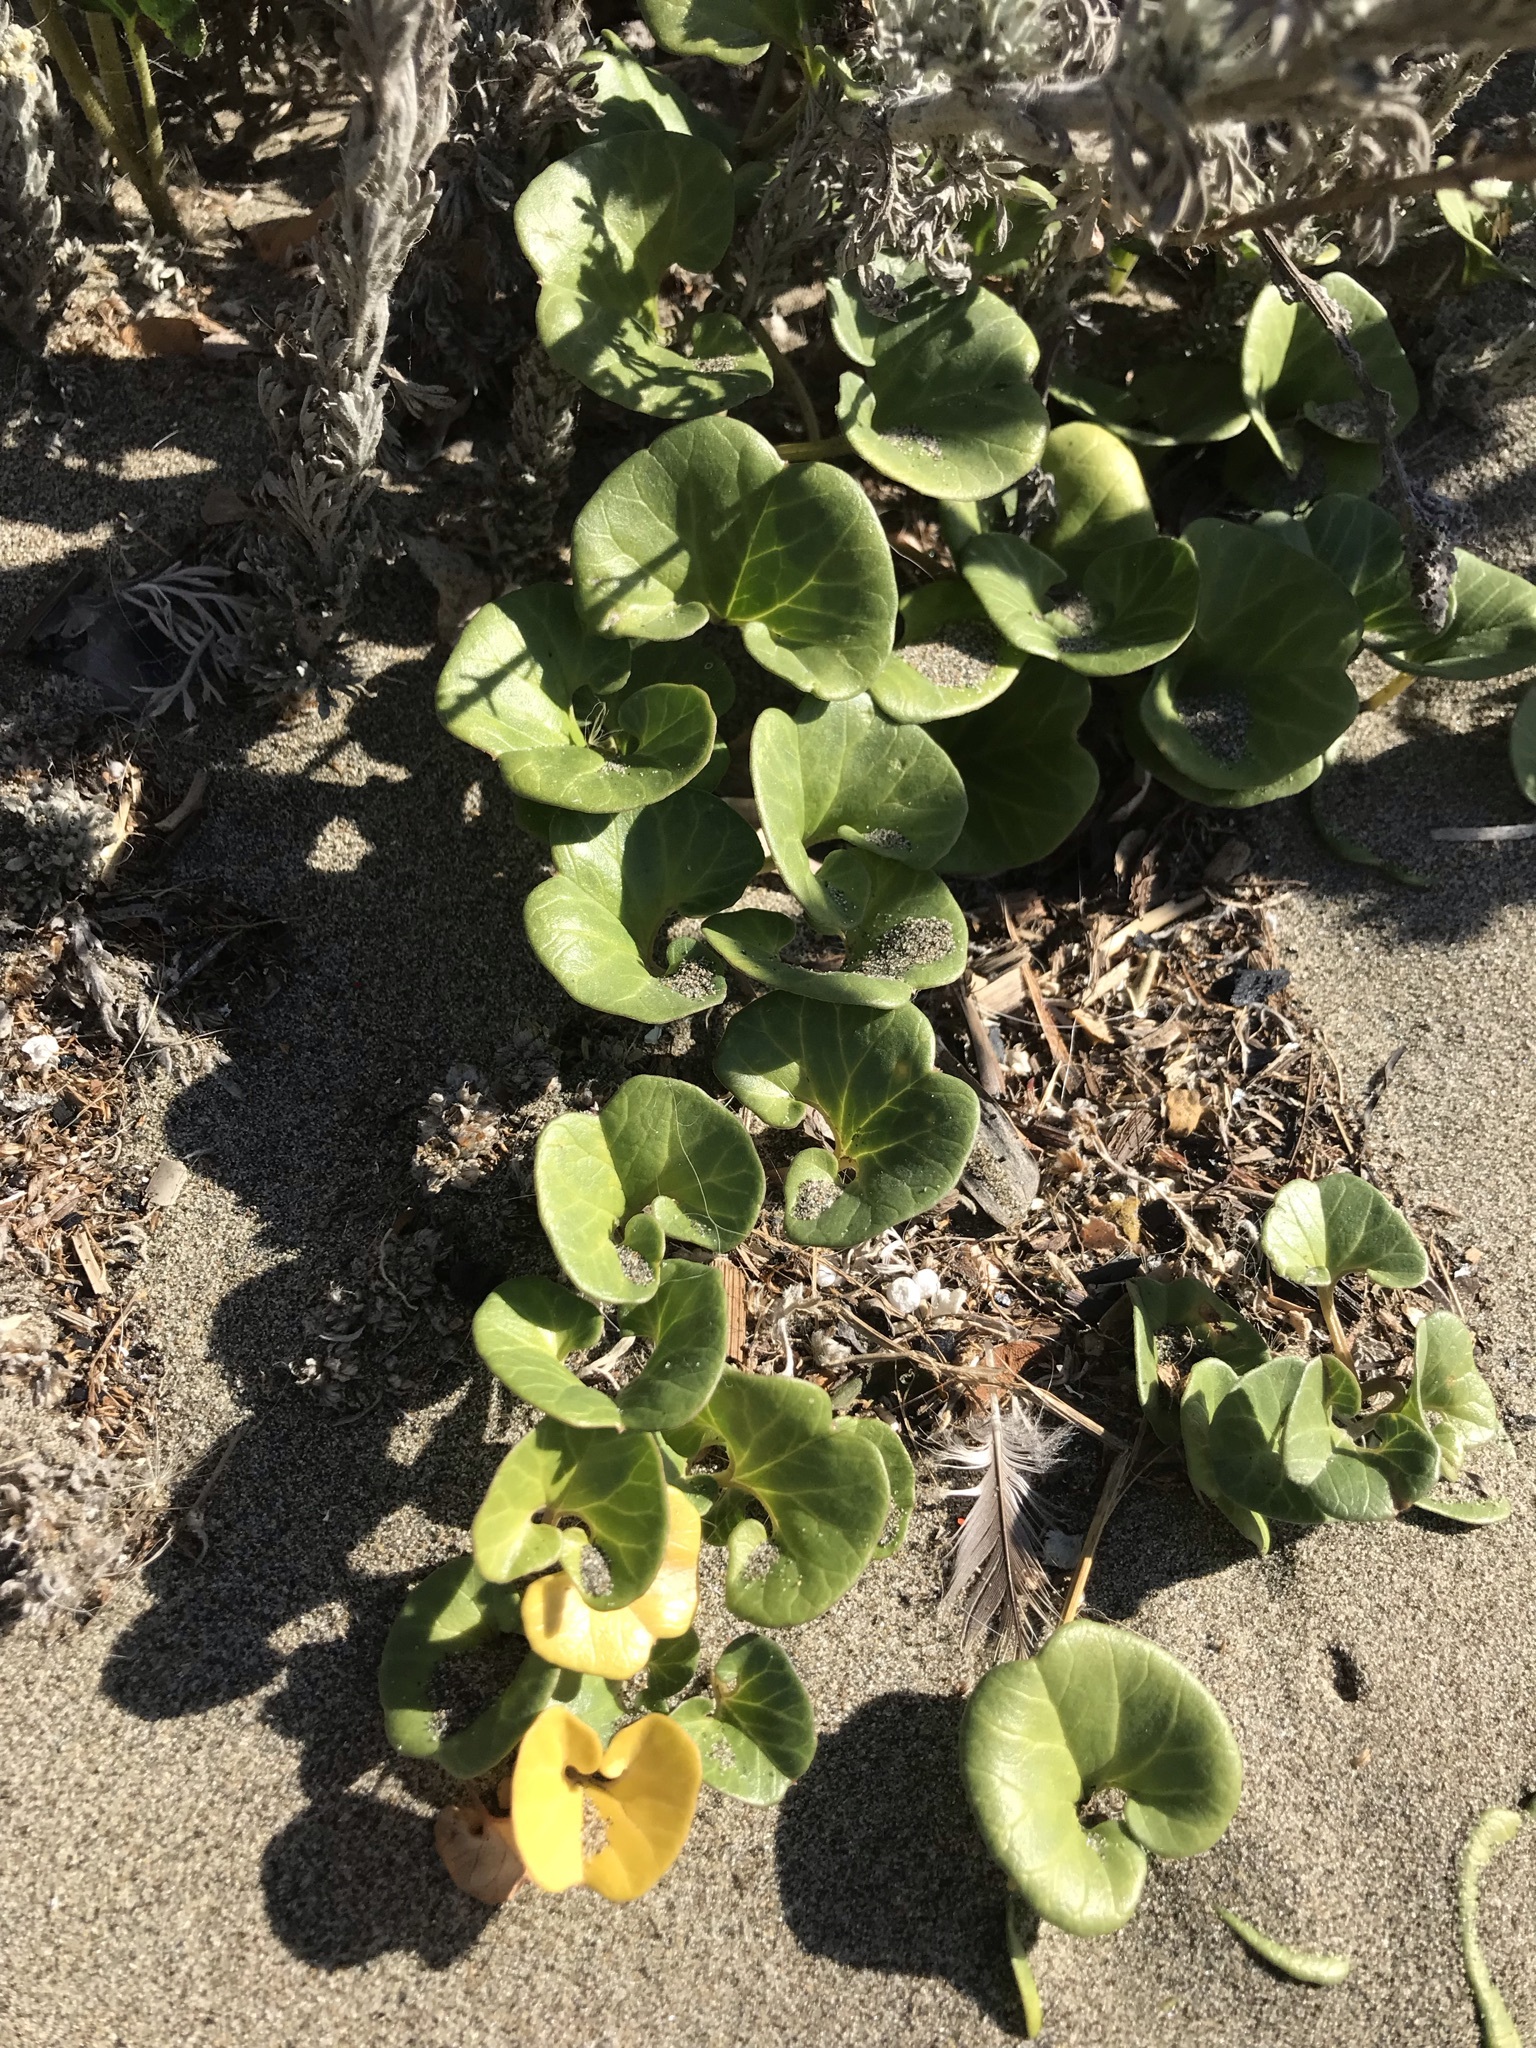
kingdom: Plantae
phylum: Tracheophyta
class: Magnoliopsida
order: Solanales
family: Convolvulaceae
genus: Calystegia
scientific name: Calystegia soldanella
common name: Sea bindweed
